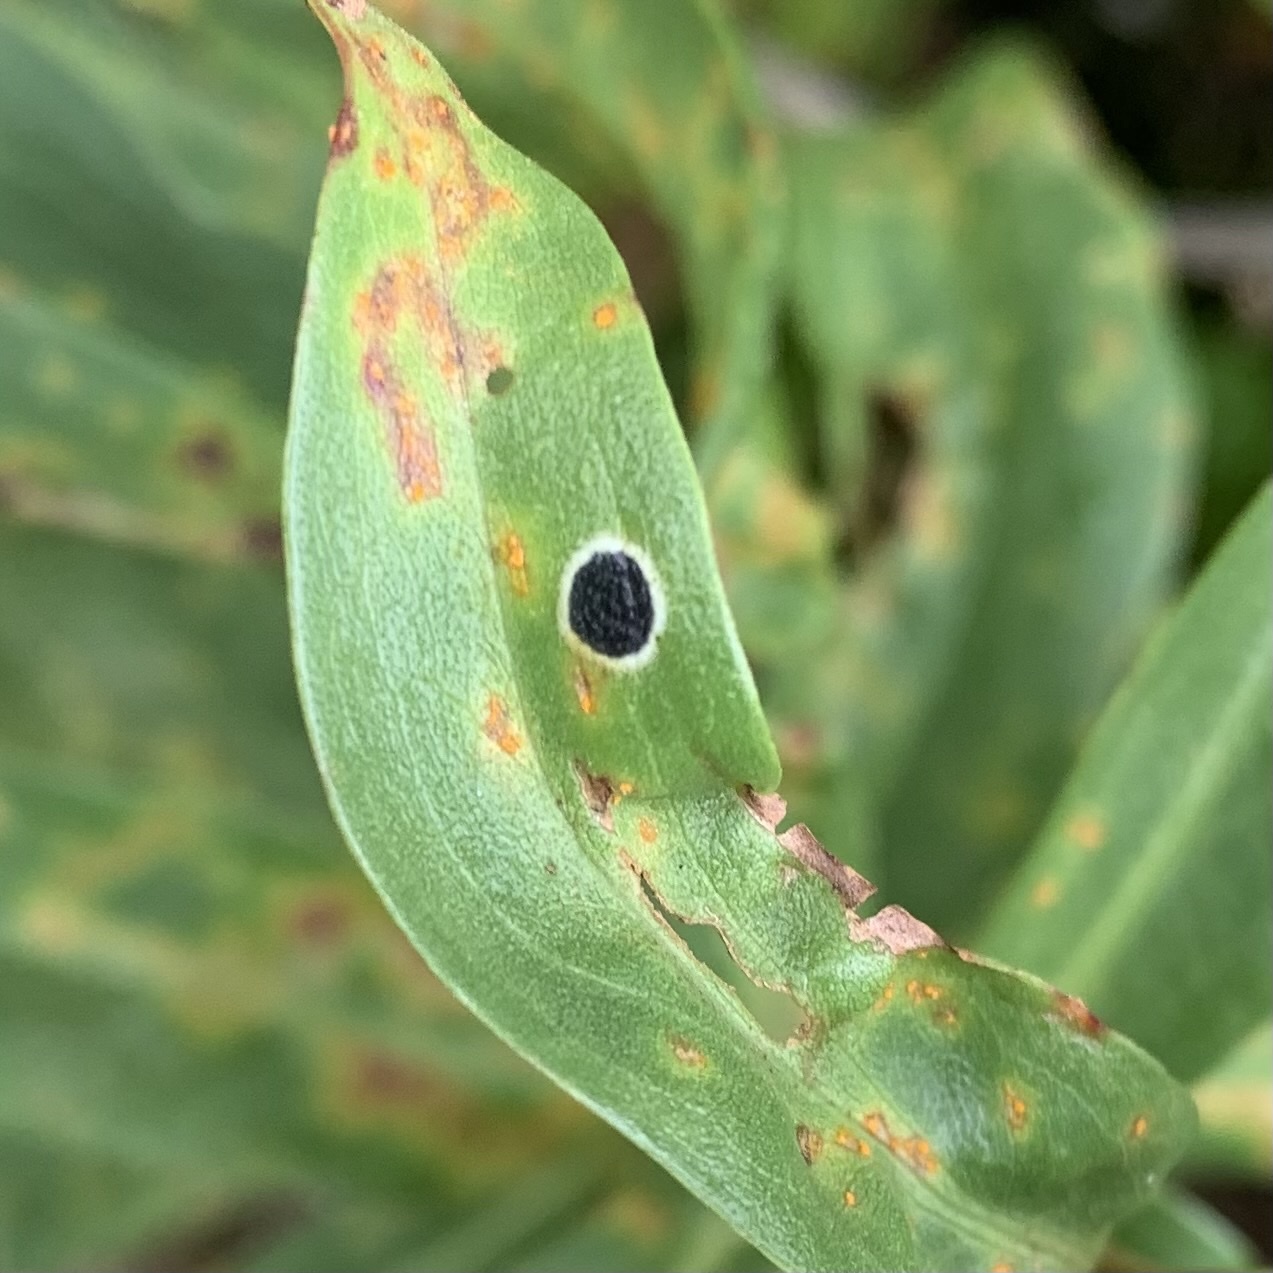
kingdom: Animalia
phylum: Arthropoda
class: Insecta
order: Diptera
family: Cecidomyiidae
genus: Asteromyia
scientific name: Asteromyia carbonifera
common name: Carbonifera goldenrod gall midge
